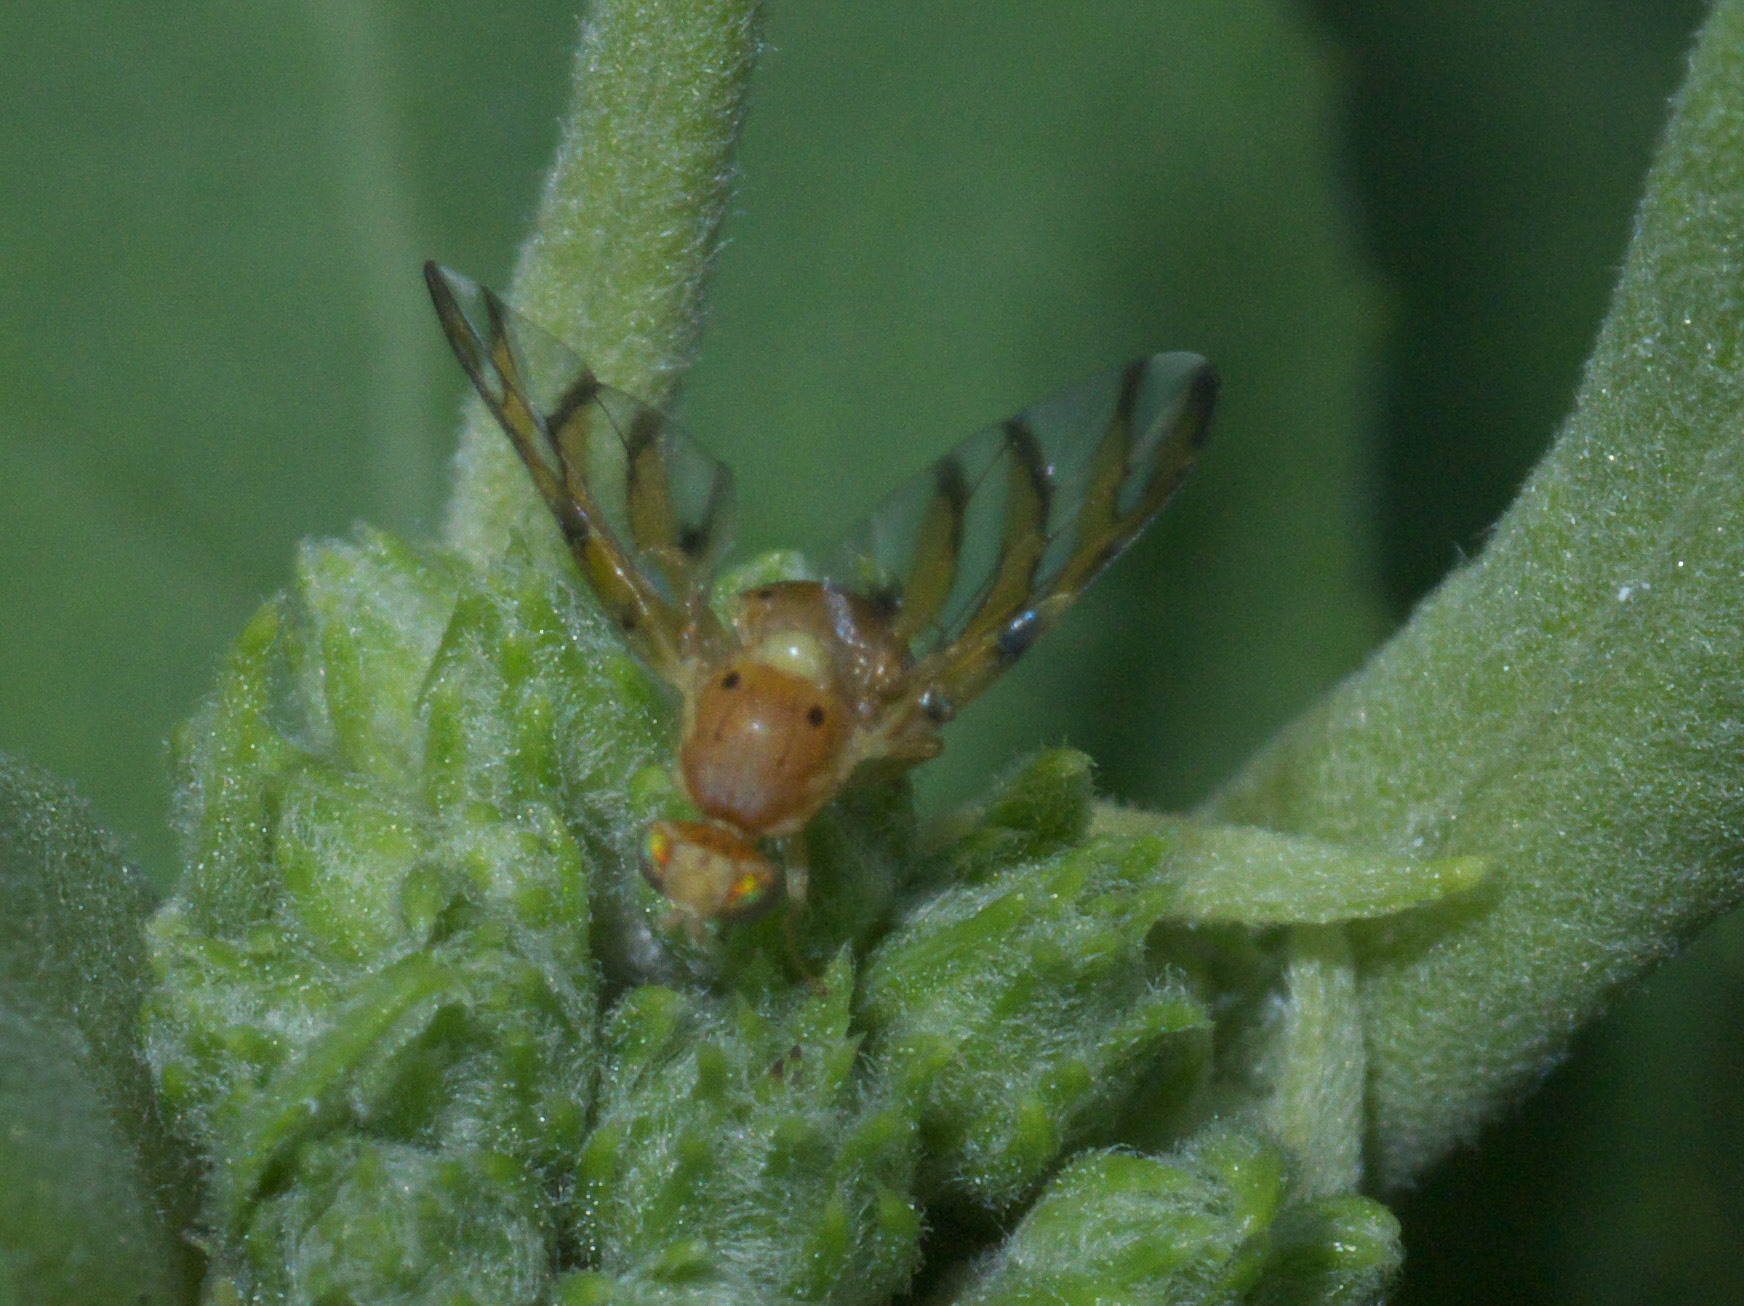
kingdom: Animalia
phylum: Arthropoda
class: Insecta
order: Diptera
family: Tephritidae
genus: Tomoplagia
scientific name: Tomoplagia obliqua
